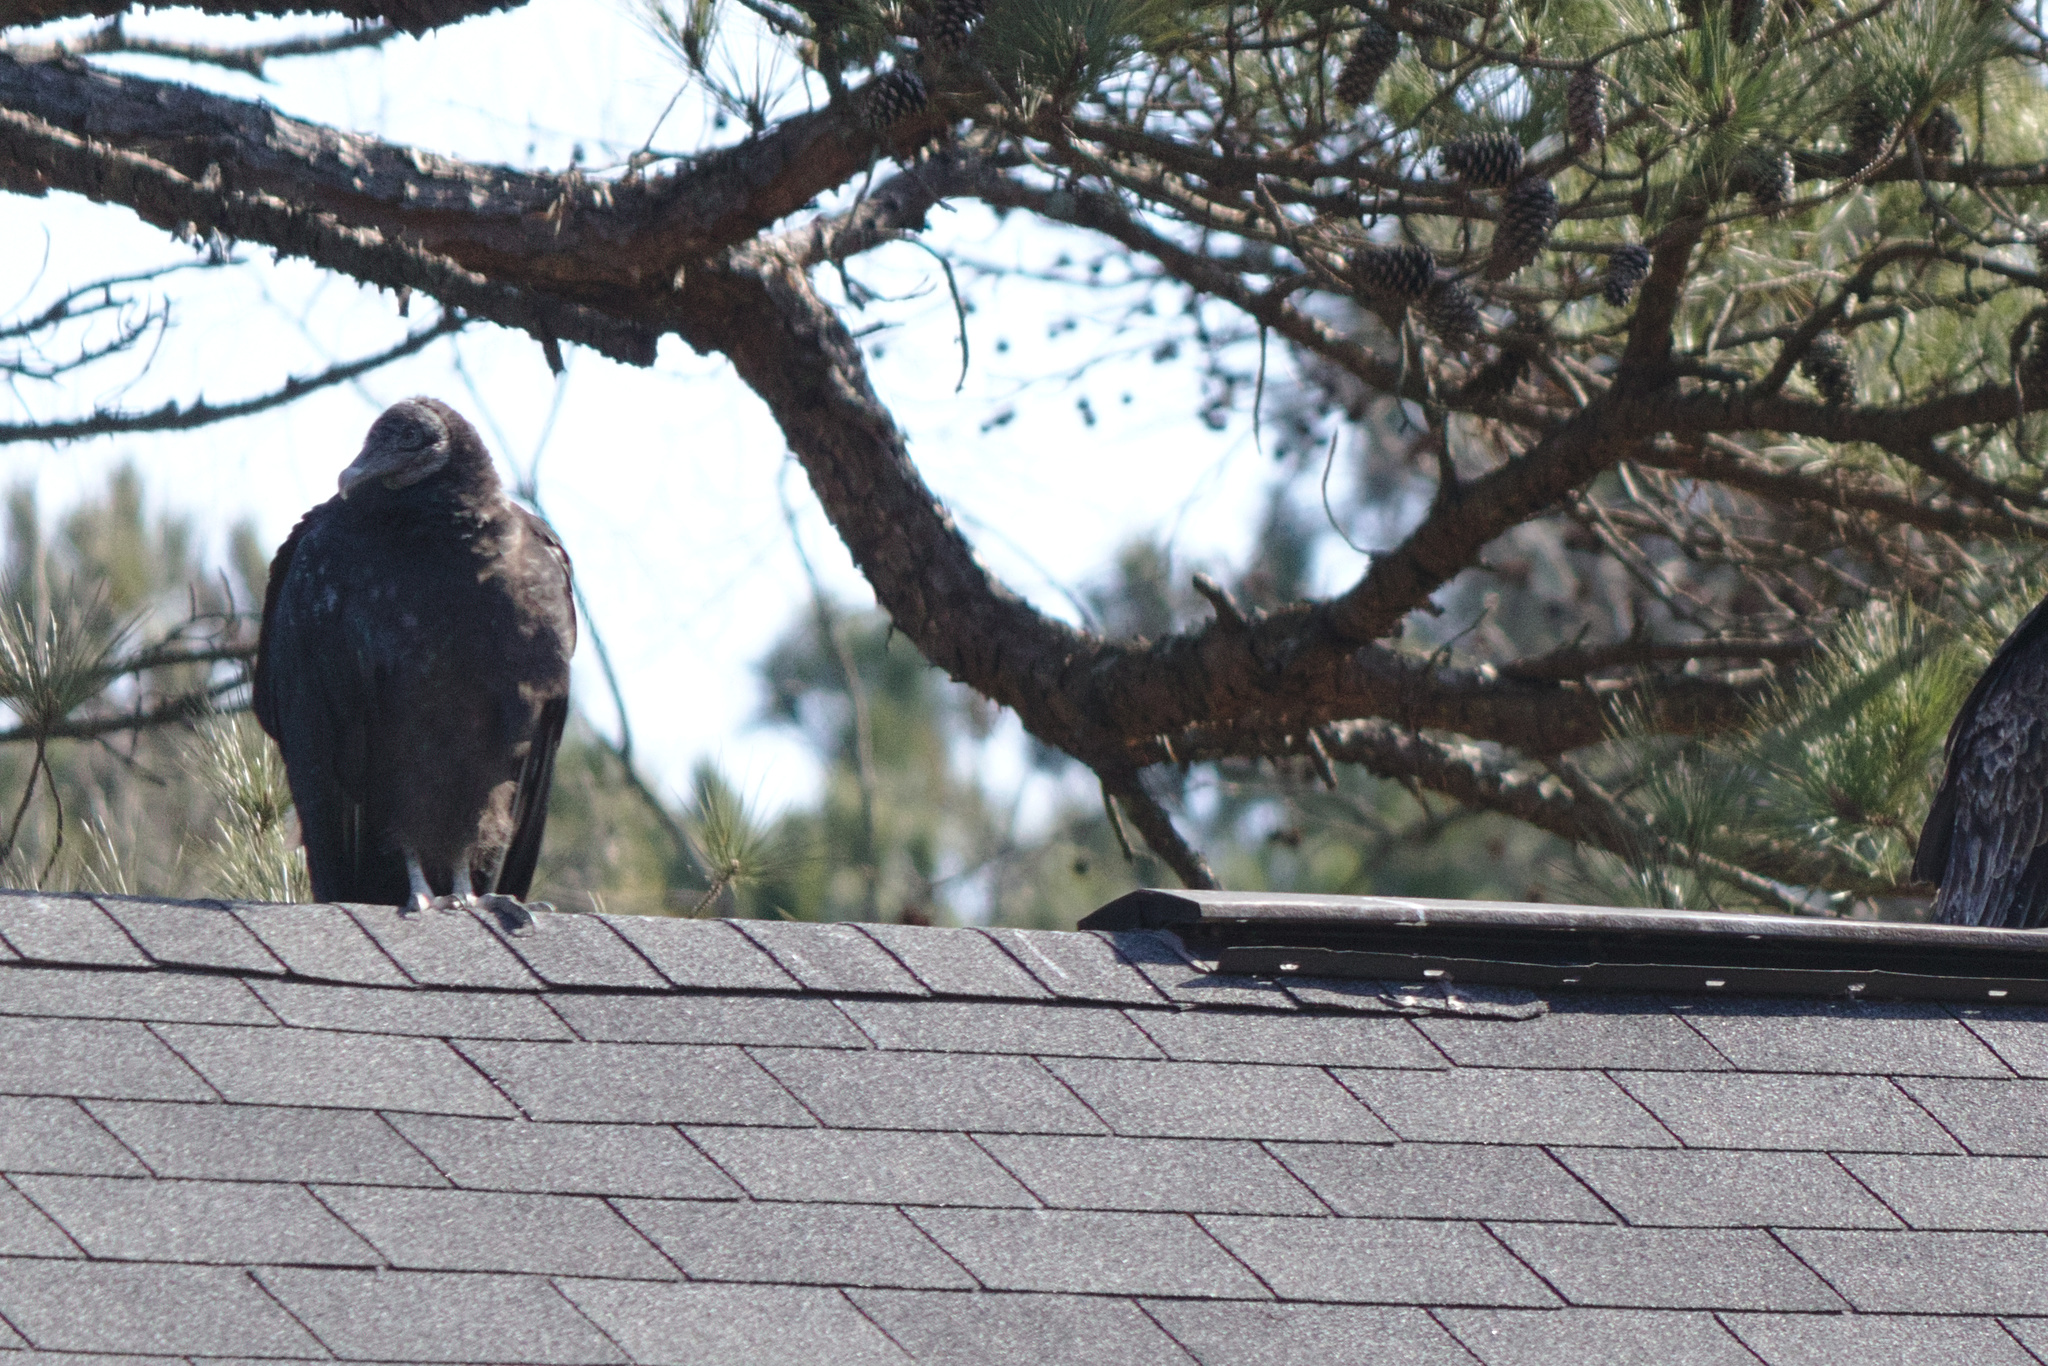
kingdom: Animalia
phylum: Chordata
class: Aves
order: Accipitriformes
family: Cathartidae
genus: Coragyps
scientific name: Coragyps atratus
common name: Black vulture
